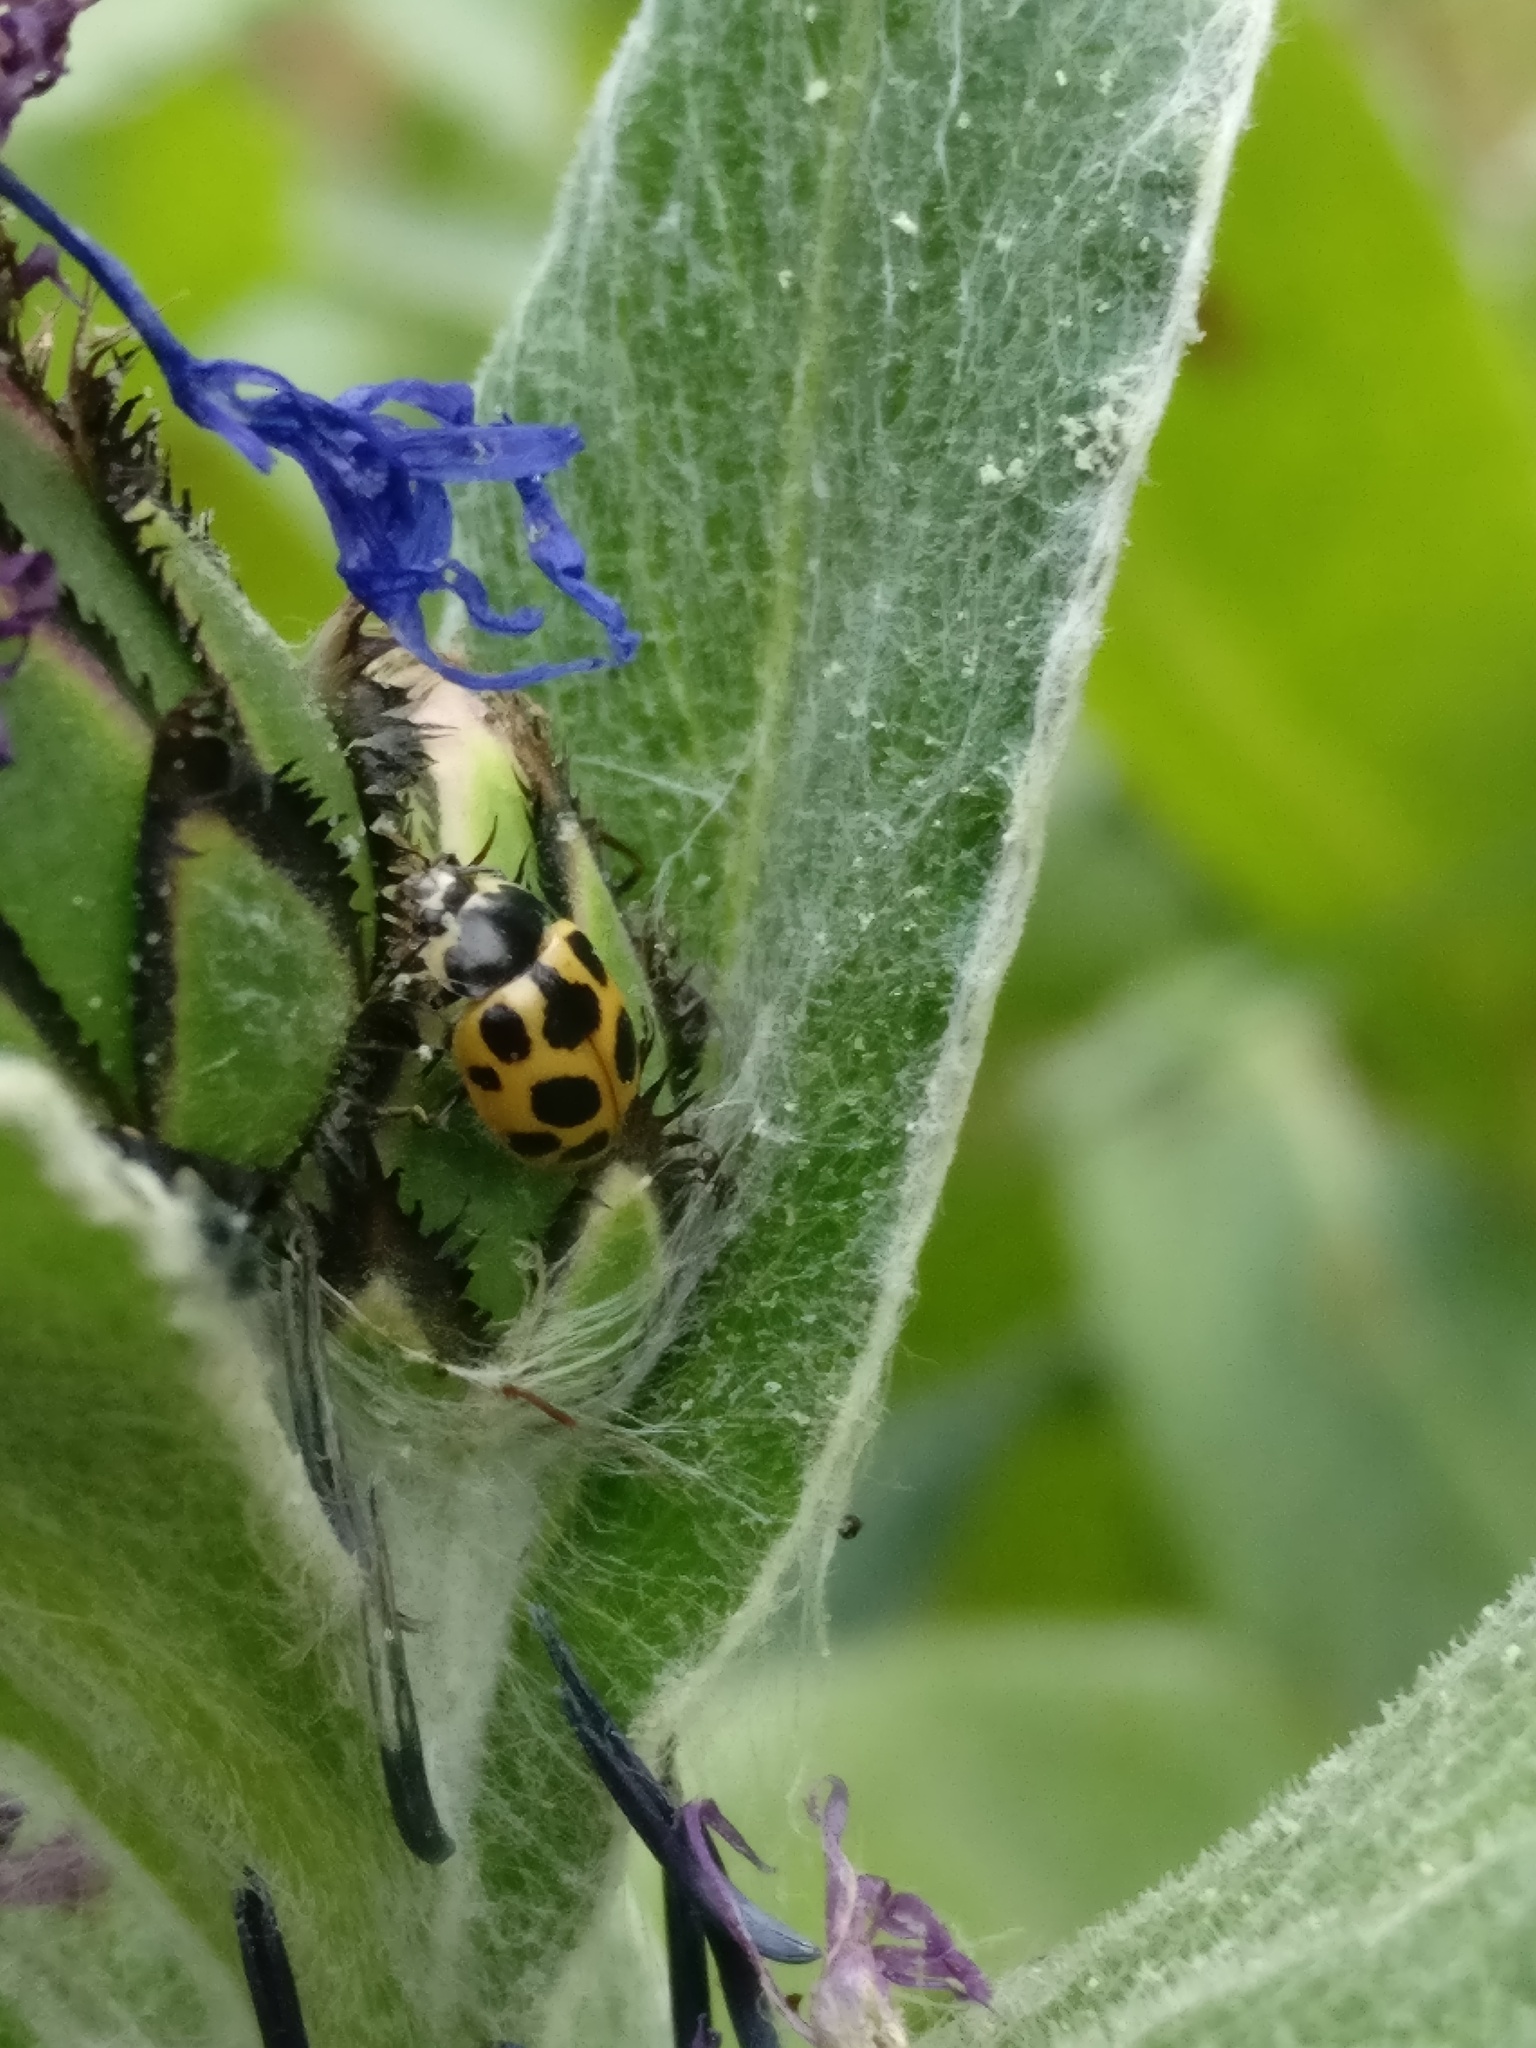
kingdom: Animalia
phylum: Arthropoda
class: Insecta
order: Coleoptera
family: Coccinellidae
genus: Ceratomegilla
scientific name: Ceratomegilla notata
